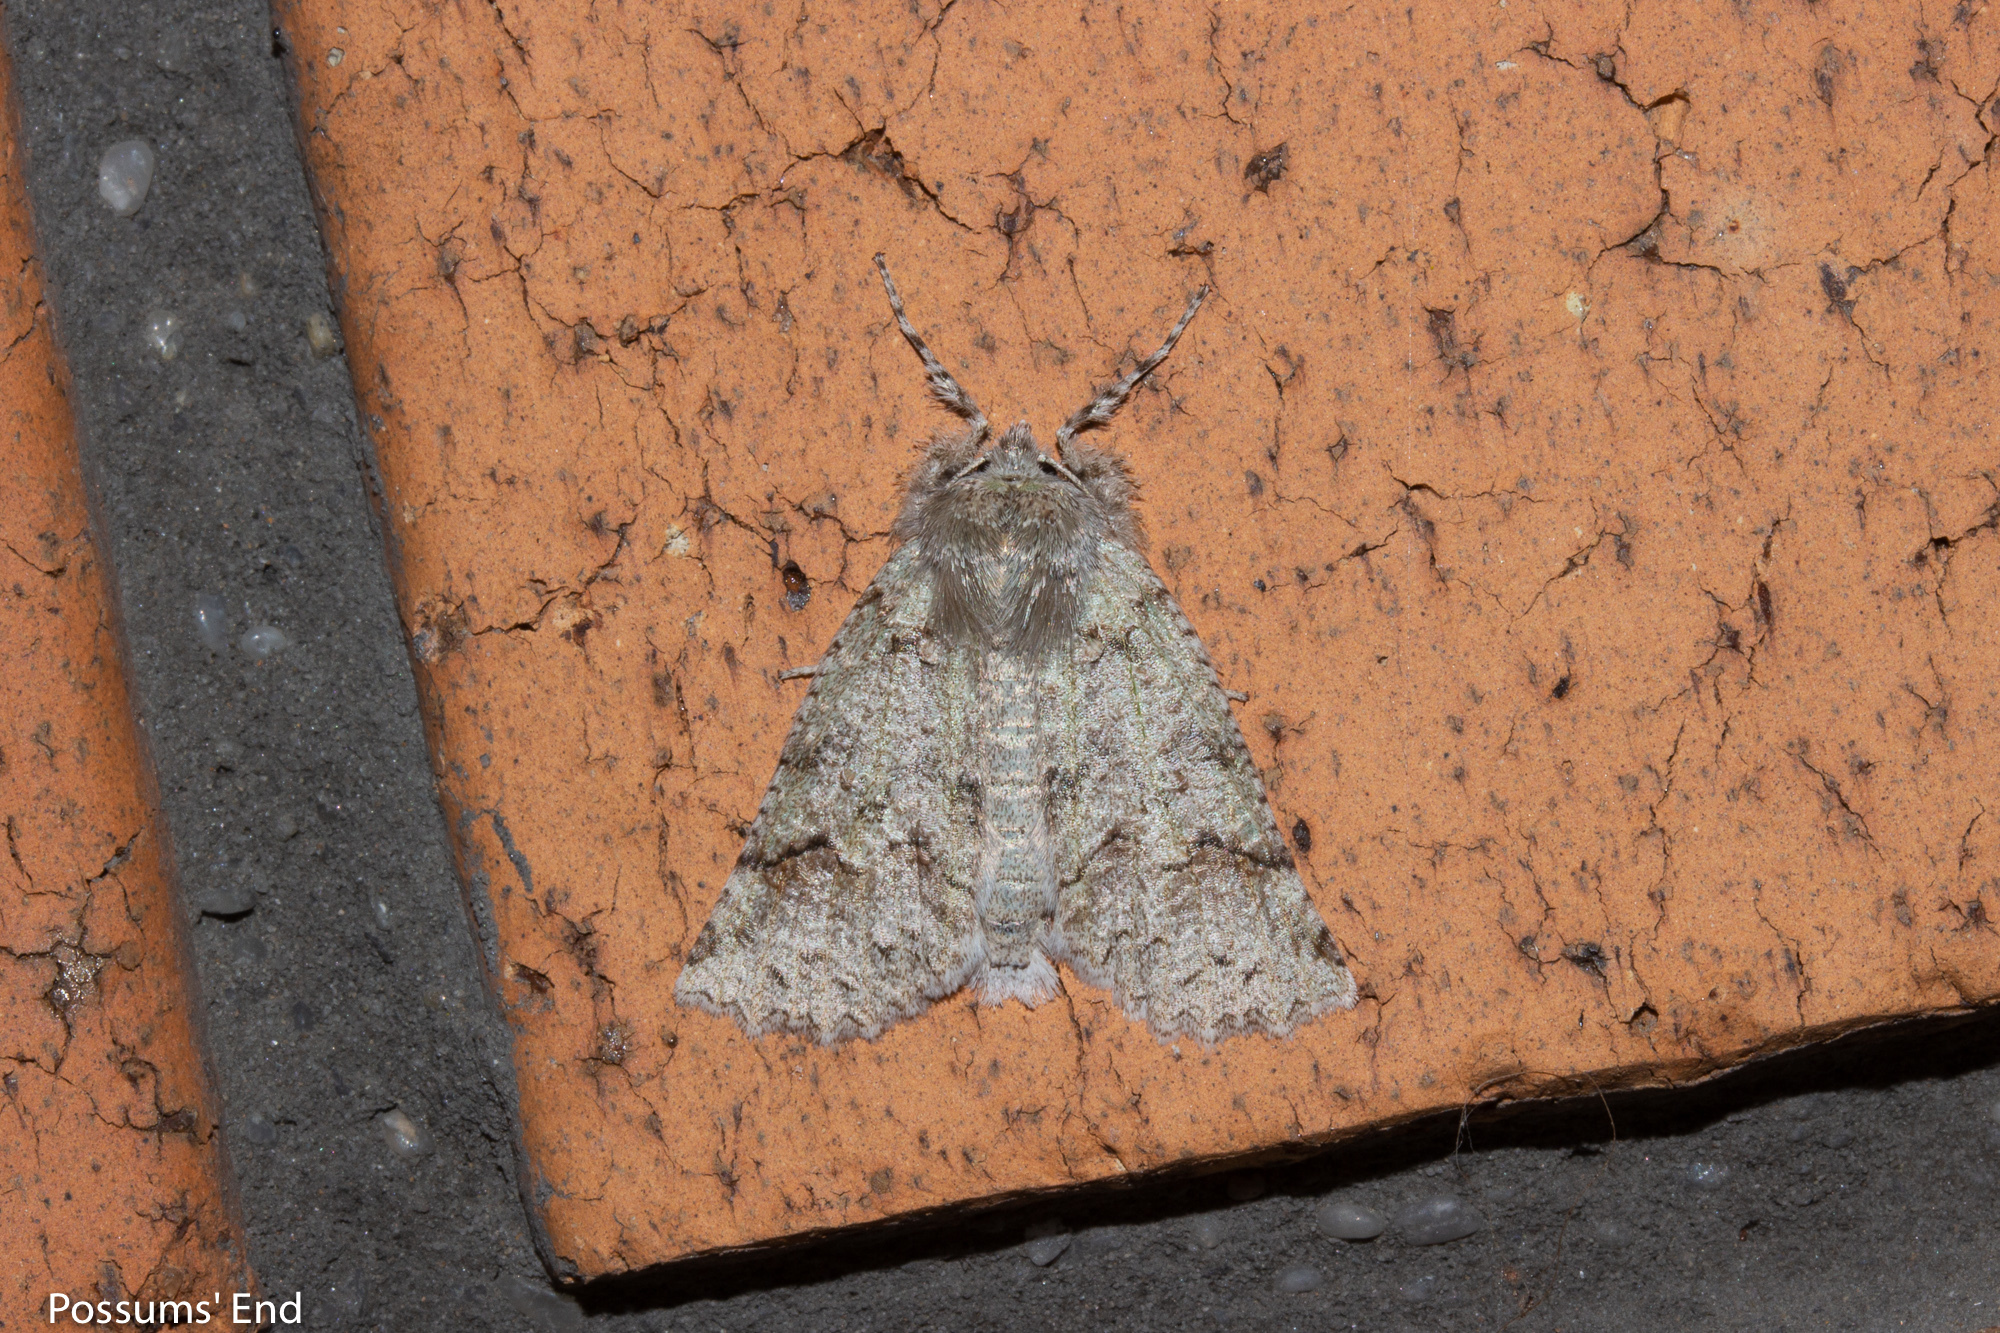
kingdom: Animalia
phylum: Arthropoda
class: Insecta
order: Lepidoptera
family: Geometridae
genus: Declana
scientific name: Declana floccosa
